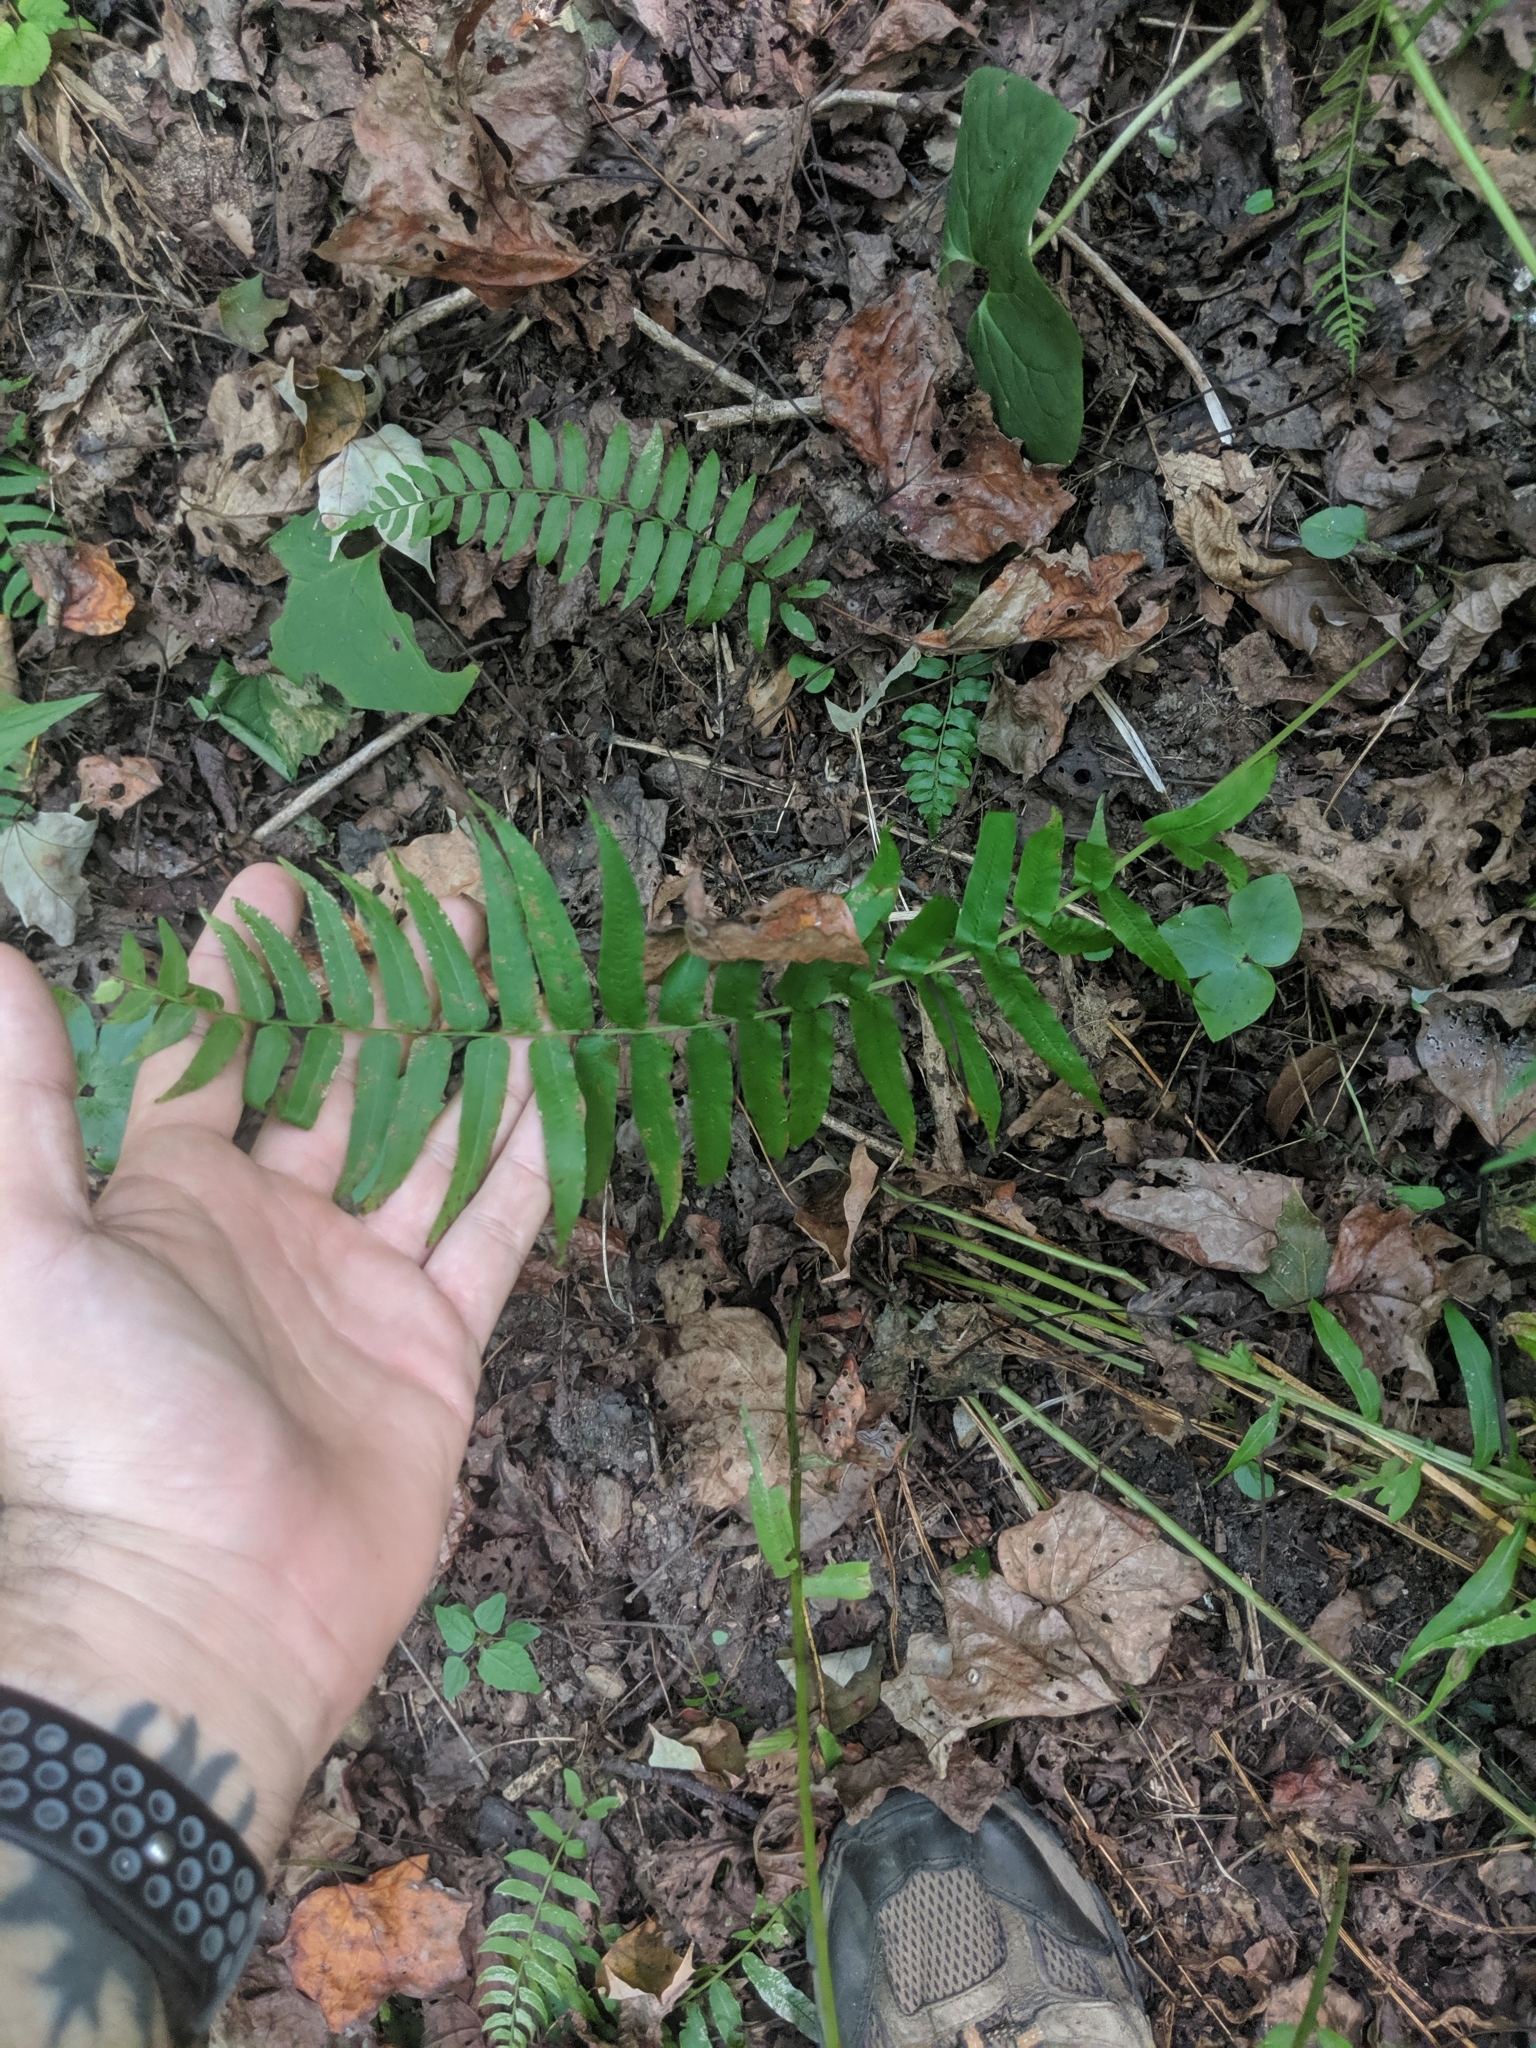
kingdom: Plantae
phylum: Tracheophyta
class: Polypodiopsida
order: Polypodiales
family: Diplaziopsidaceae
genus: Homalosorus
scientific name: Homalosorus pycnocarpos
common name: Glade fern
